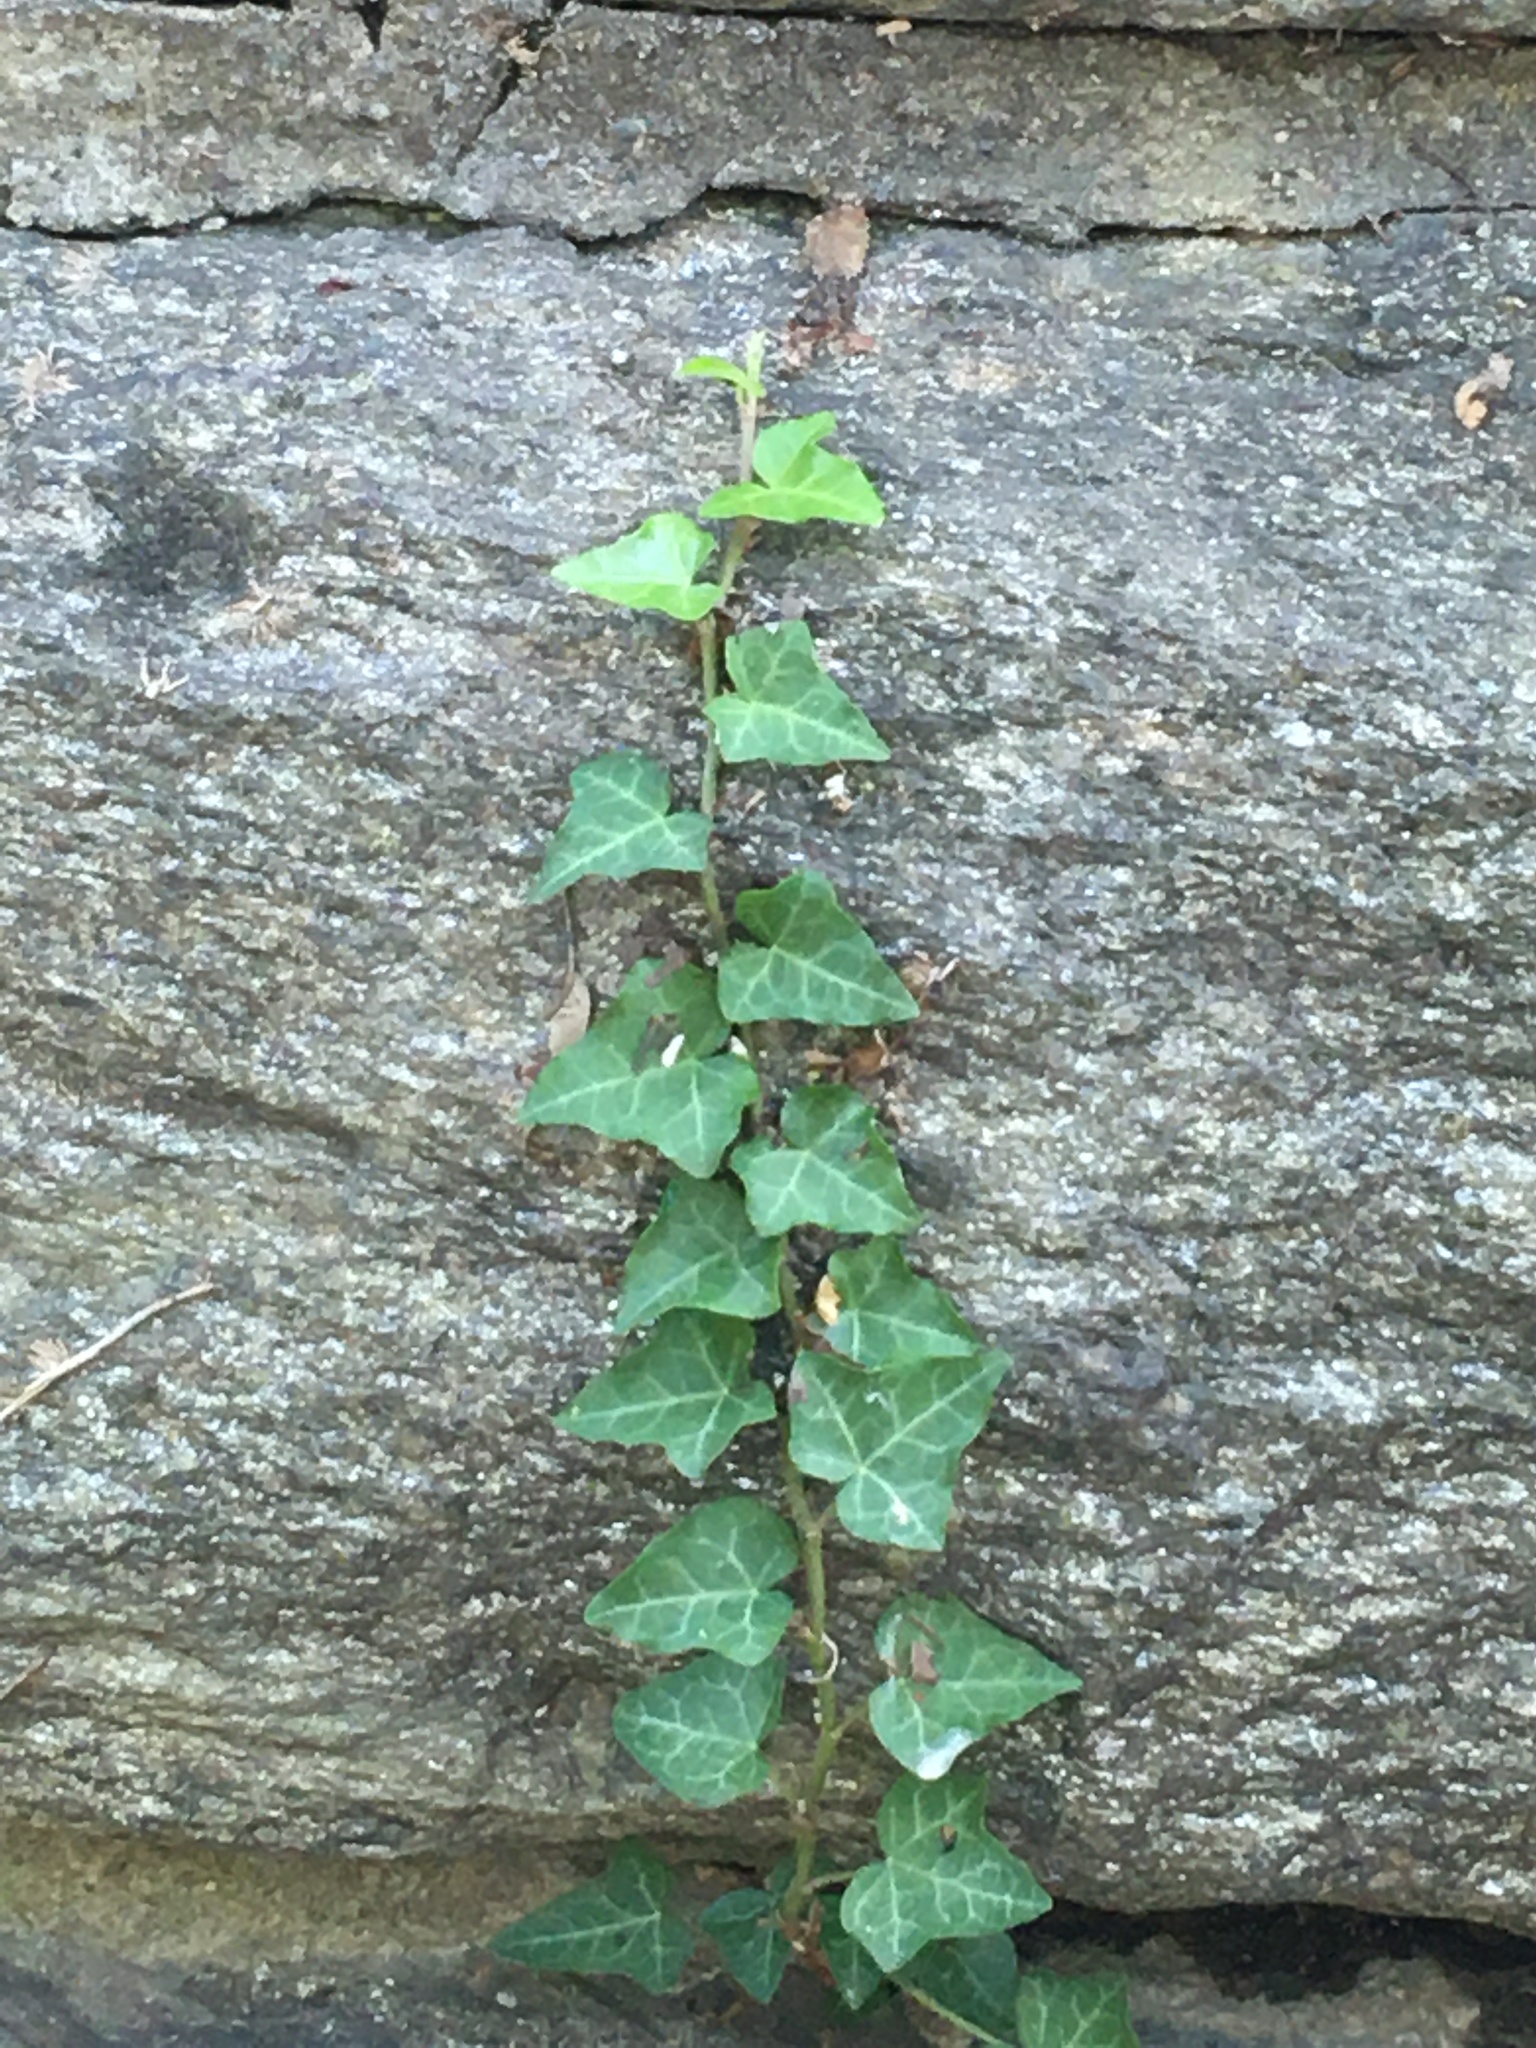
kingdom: Plantae
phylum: Tracheophyta
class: Magnoliopsida
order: Apiales
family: Araliaceae
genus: Hedera
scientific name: Hedera helix
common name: Ivy
